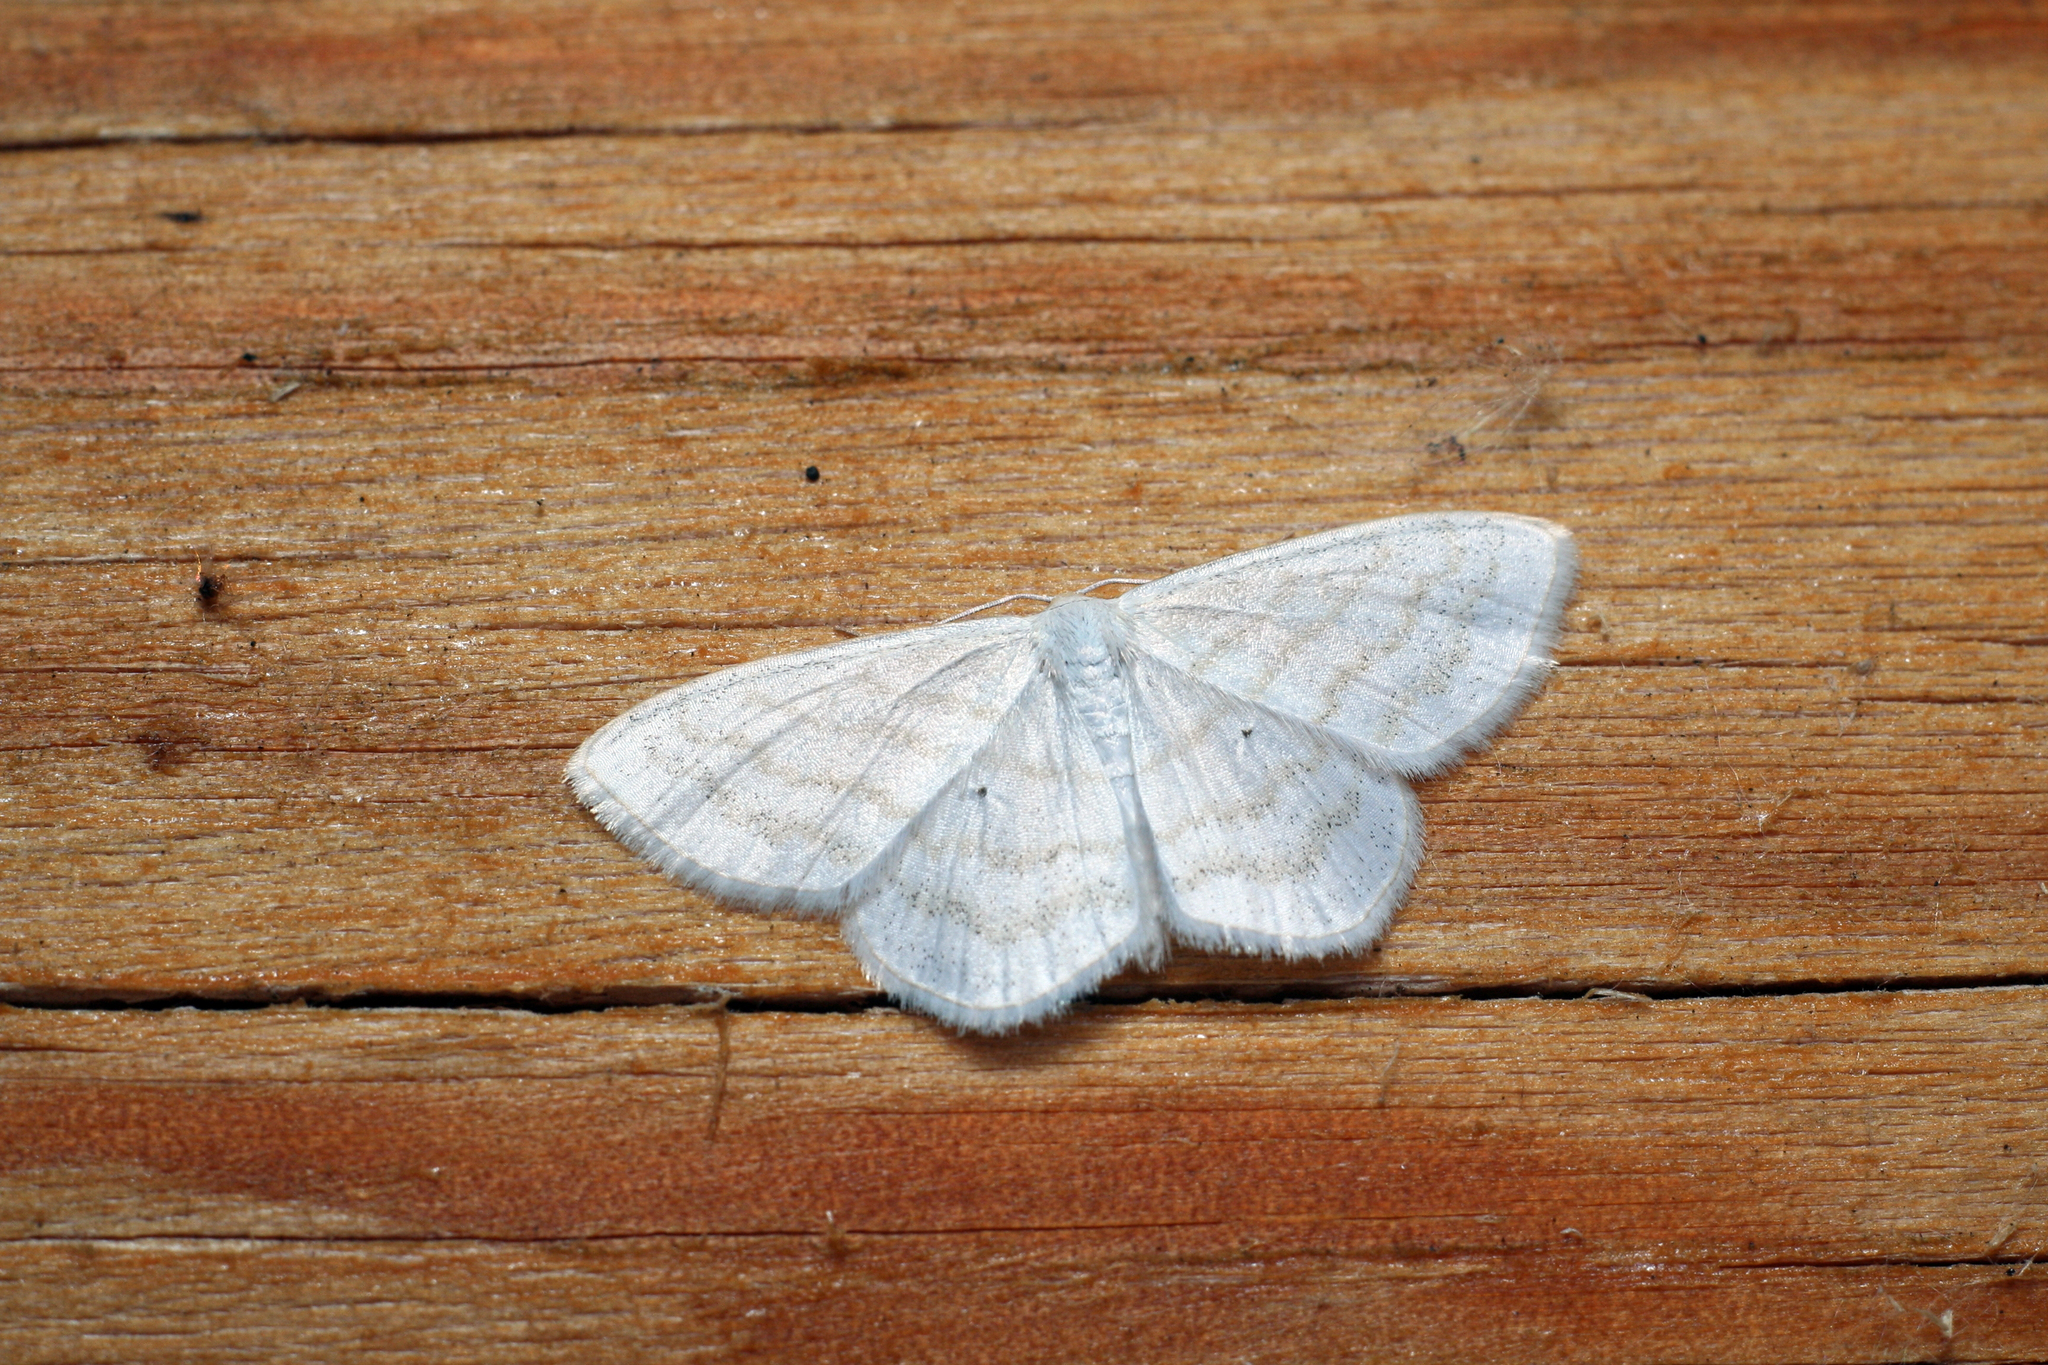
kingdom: Animalia
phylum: Arthropoda
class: Insecta
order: Lepidoptera
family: Geometridae
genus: Scopula
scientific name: Scopula virginalis
